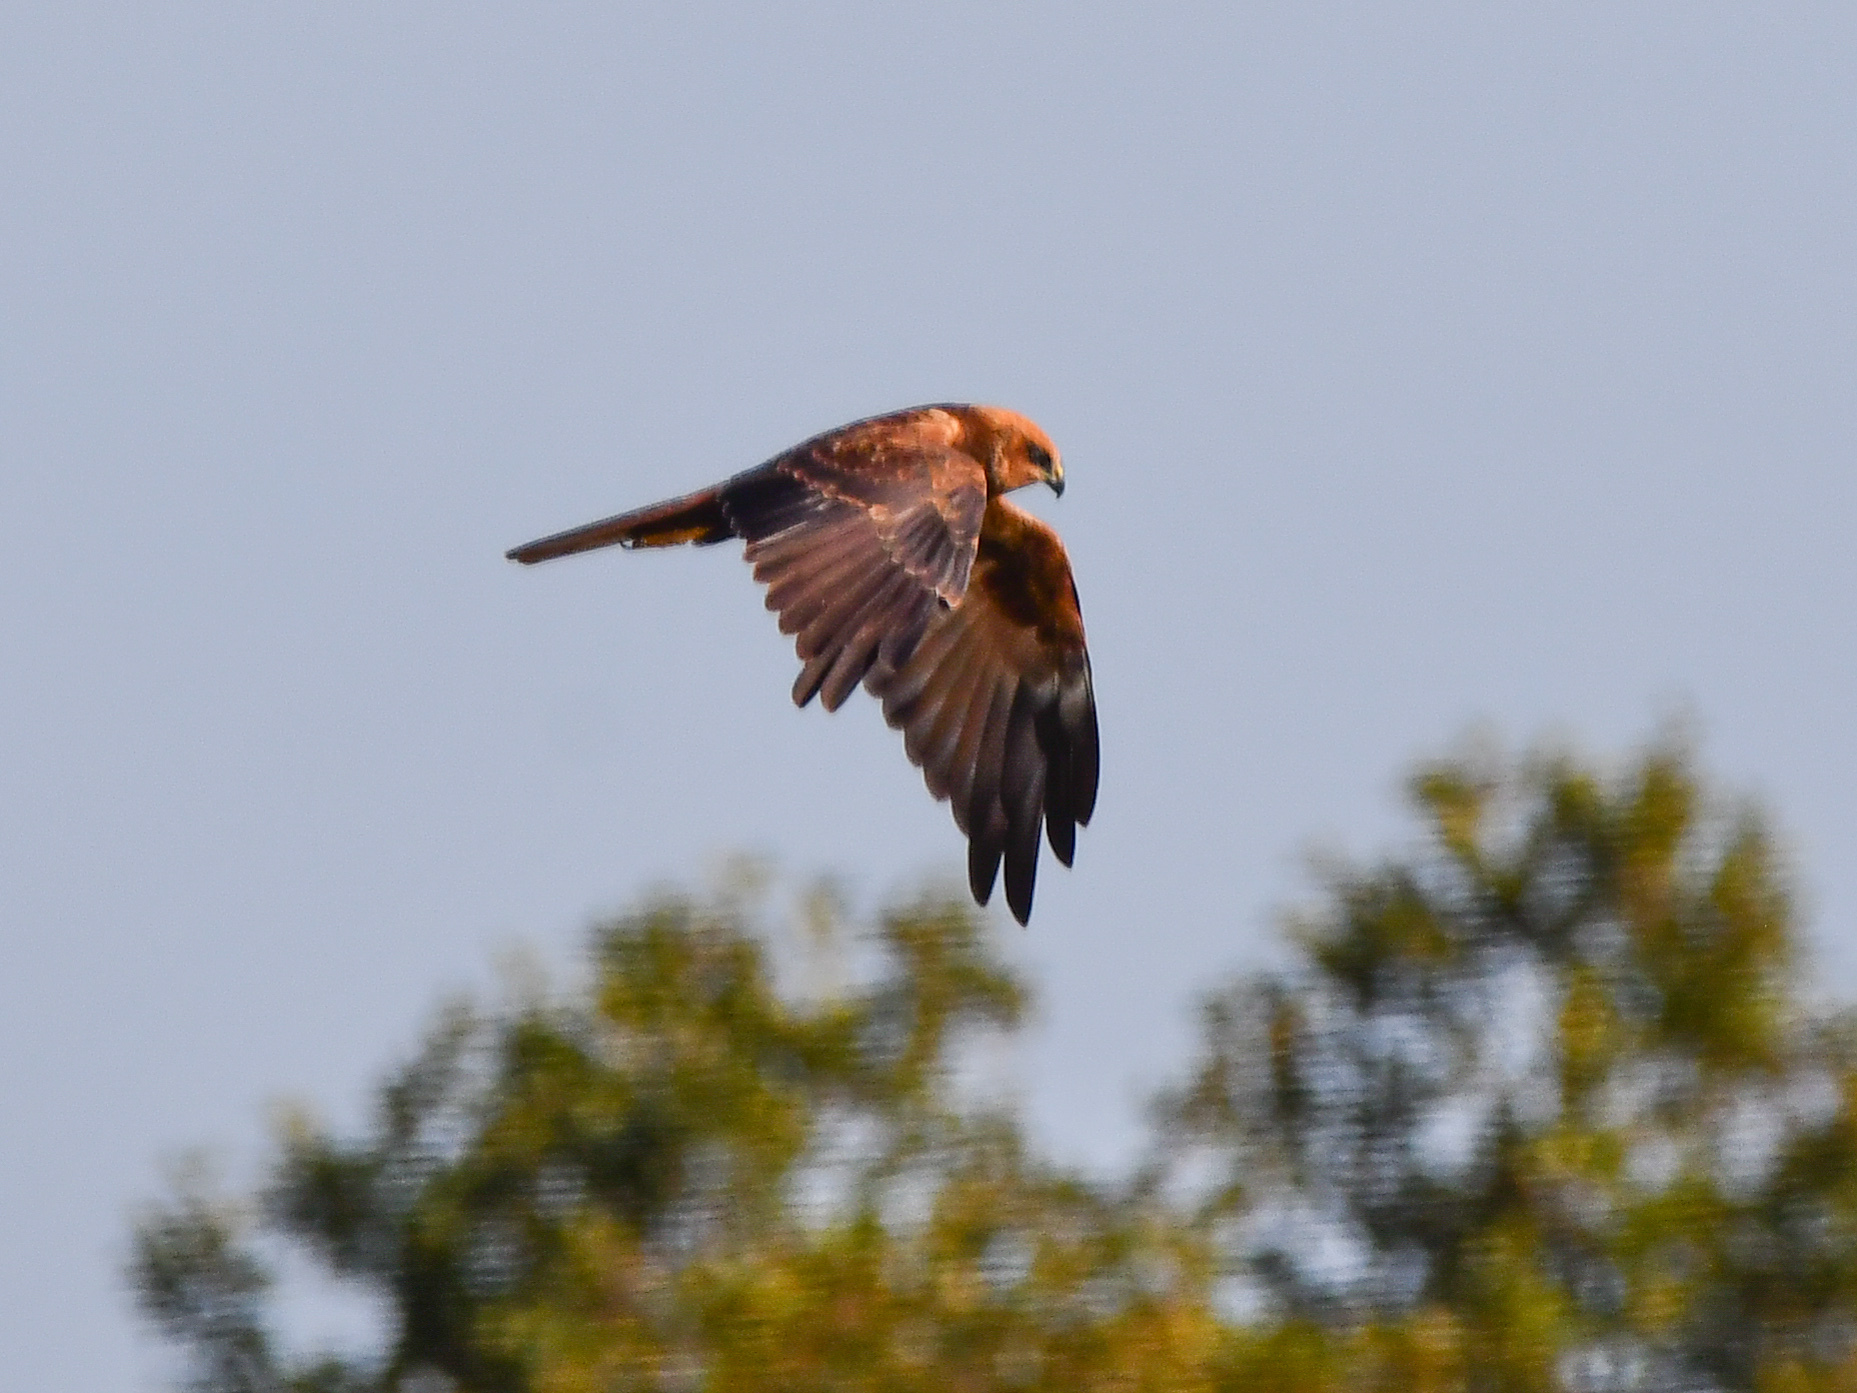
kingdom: Animalia
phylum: Chordata
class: Aves
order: Accipitriformes
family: Accipitridae
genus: Circus
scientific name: Circus aeruginosus
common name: Western marsh harrier
